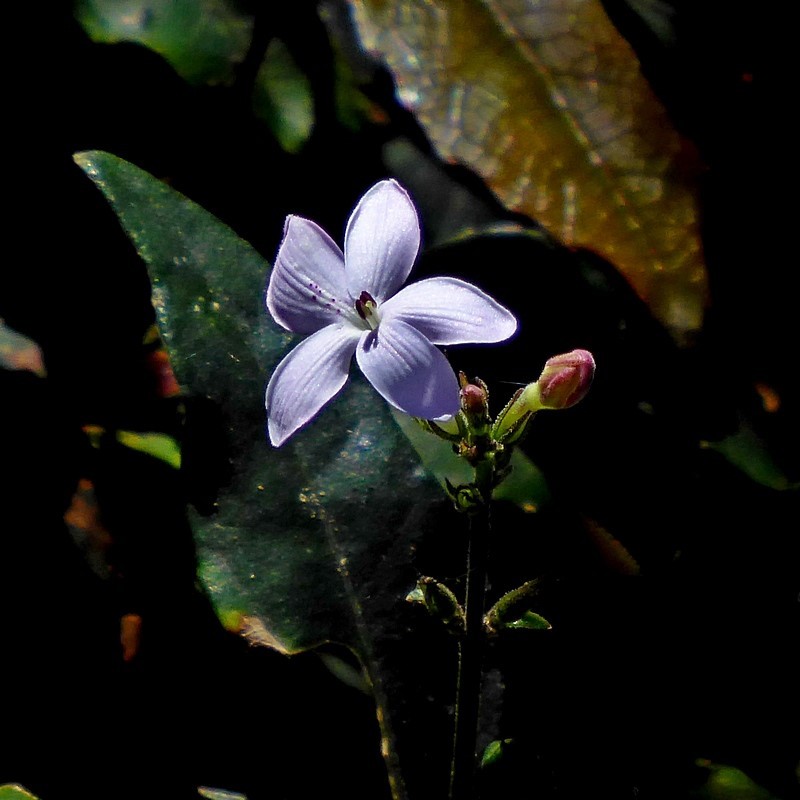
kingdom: Plantae
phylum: Tracheophyta
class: Magnoliopsida
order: Lamiales
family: Acanthaceae
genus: Pseuderanthemum
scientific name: Pseuderanthemum variabile
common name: Night and afternoon
